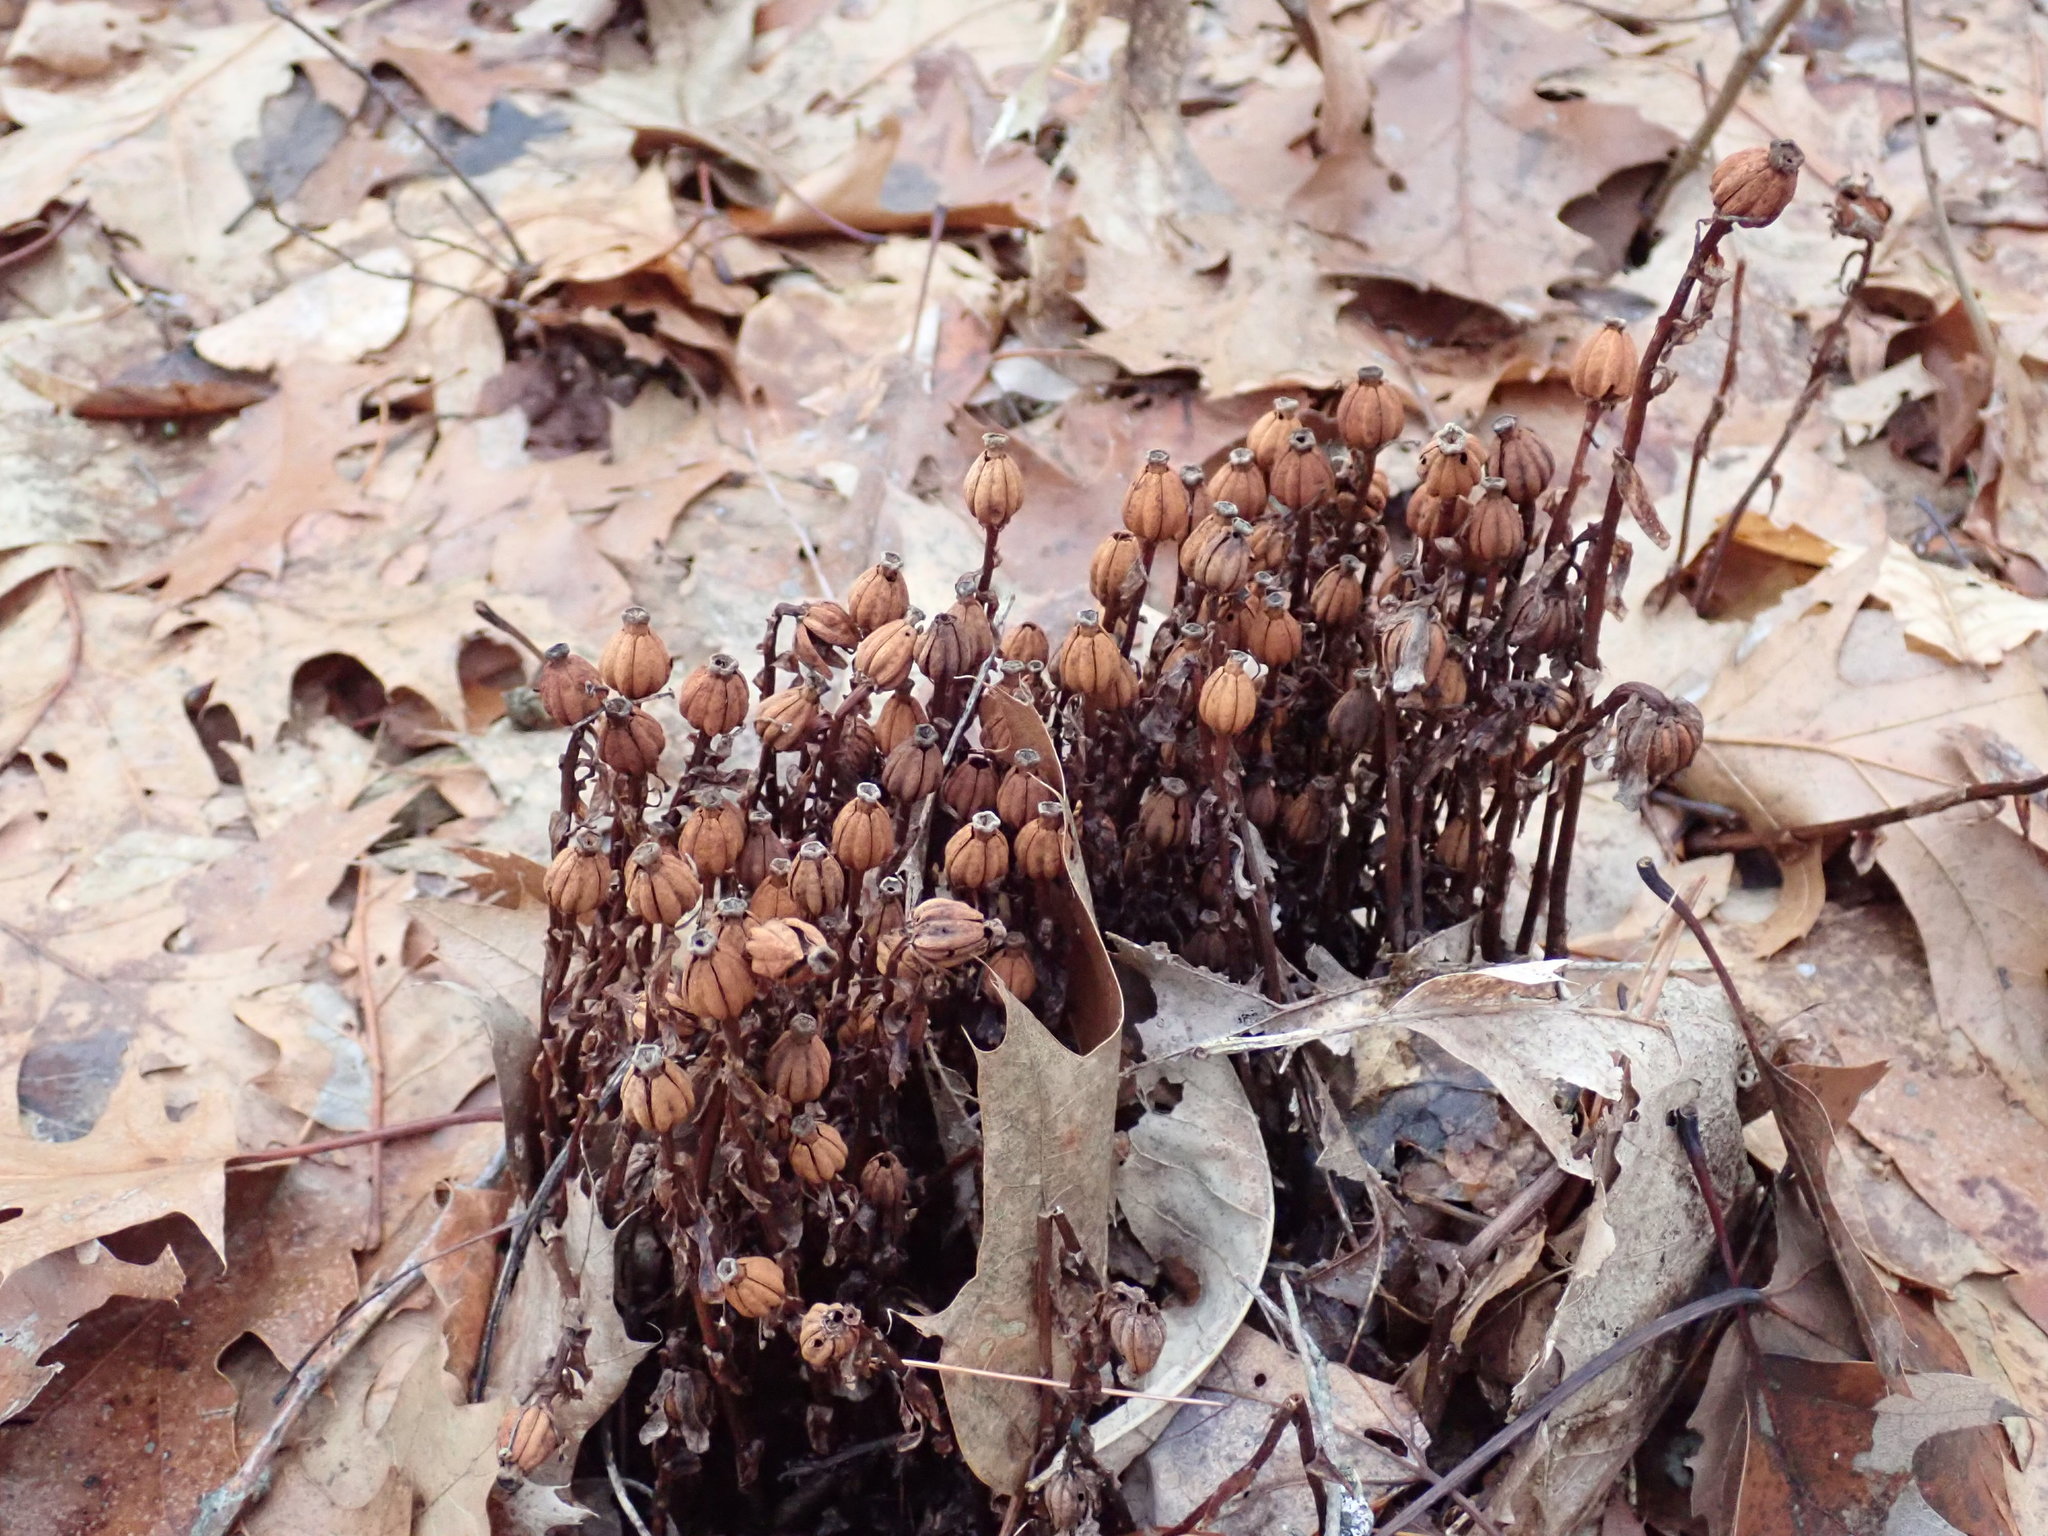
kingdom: Plantae
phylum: Tracheophyta
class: Magnoliopsida
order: Ericales
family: Ericaceae
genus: Monotropa
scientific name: Monotropa uniflora
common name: Convulsion root
